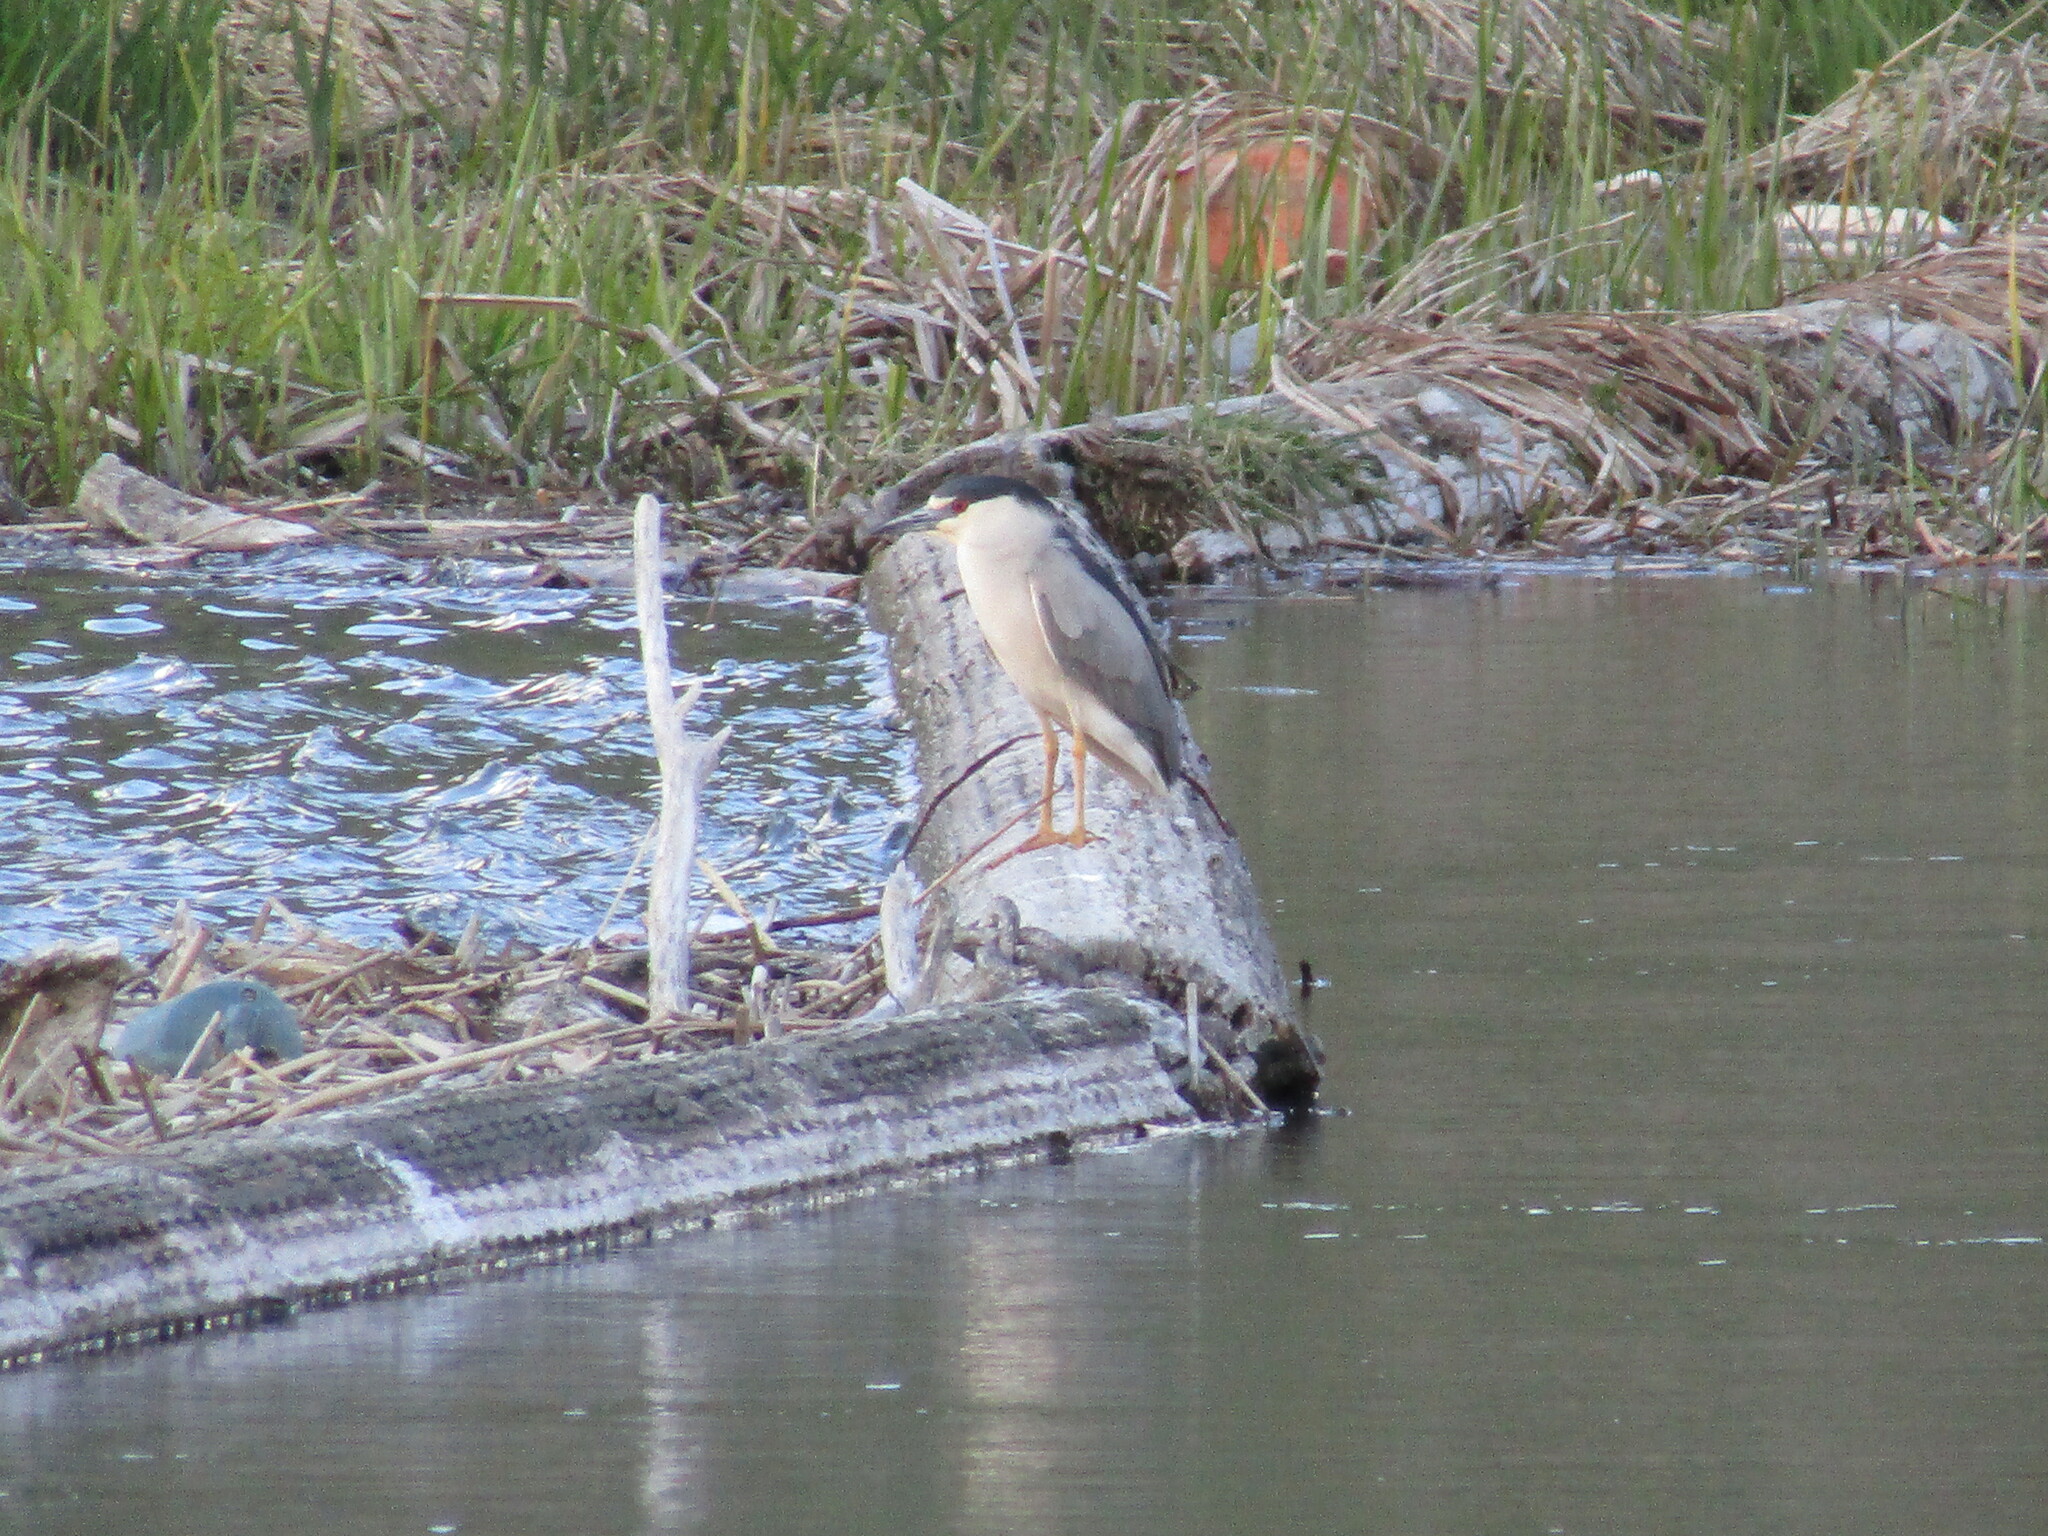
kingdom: Animalia
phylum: Chordata
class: Aves
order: Pelecaniformes
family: Ardeidae
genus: Nycticorax
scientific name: Nycticorax nycticorax
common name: Black-crowned night heron
